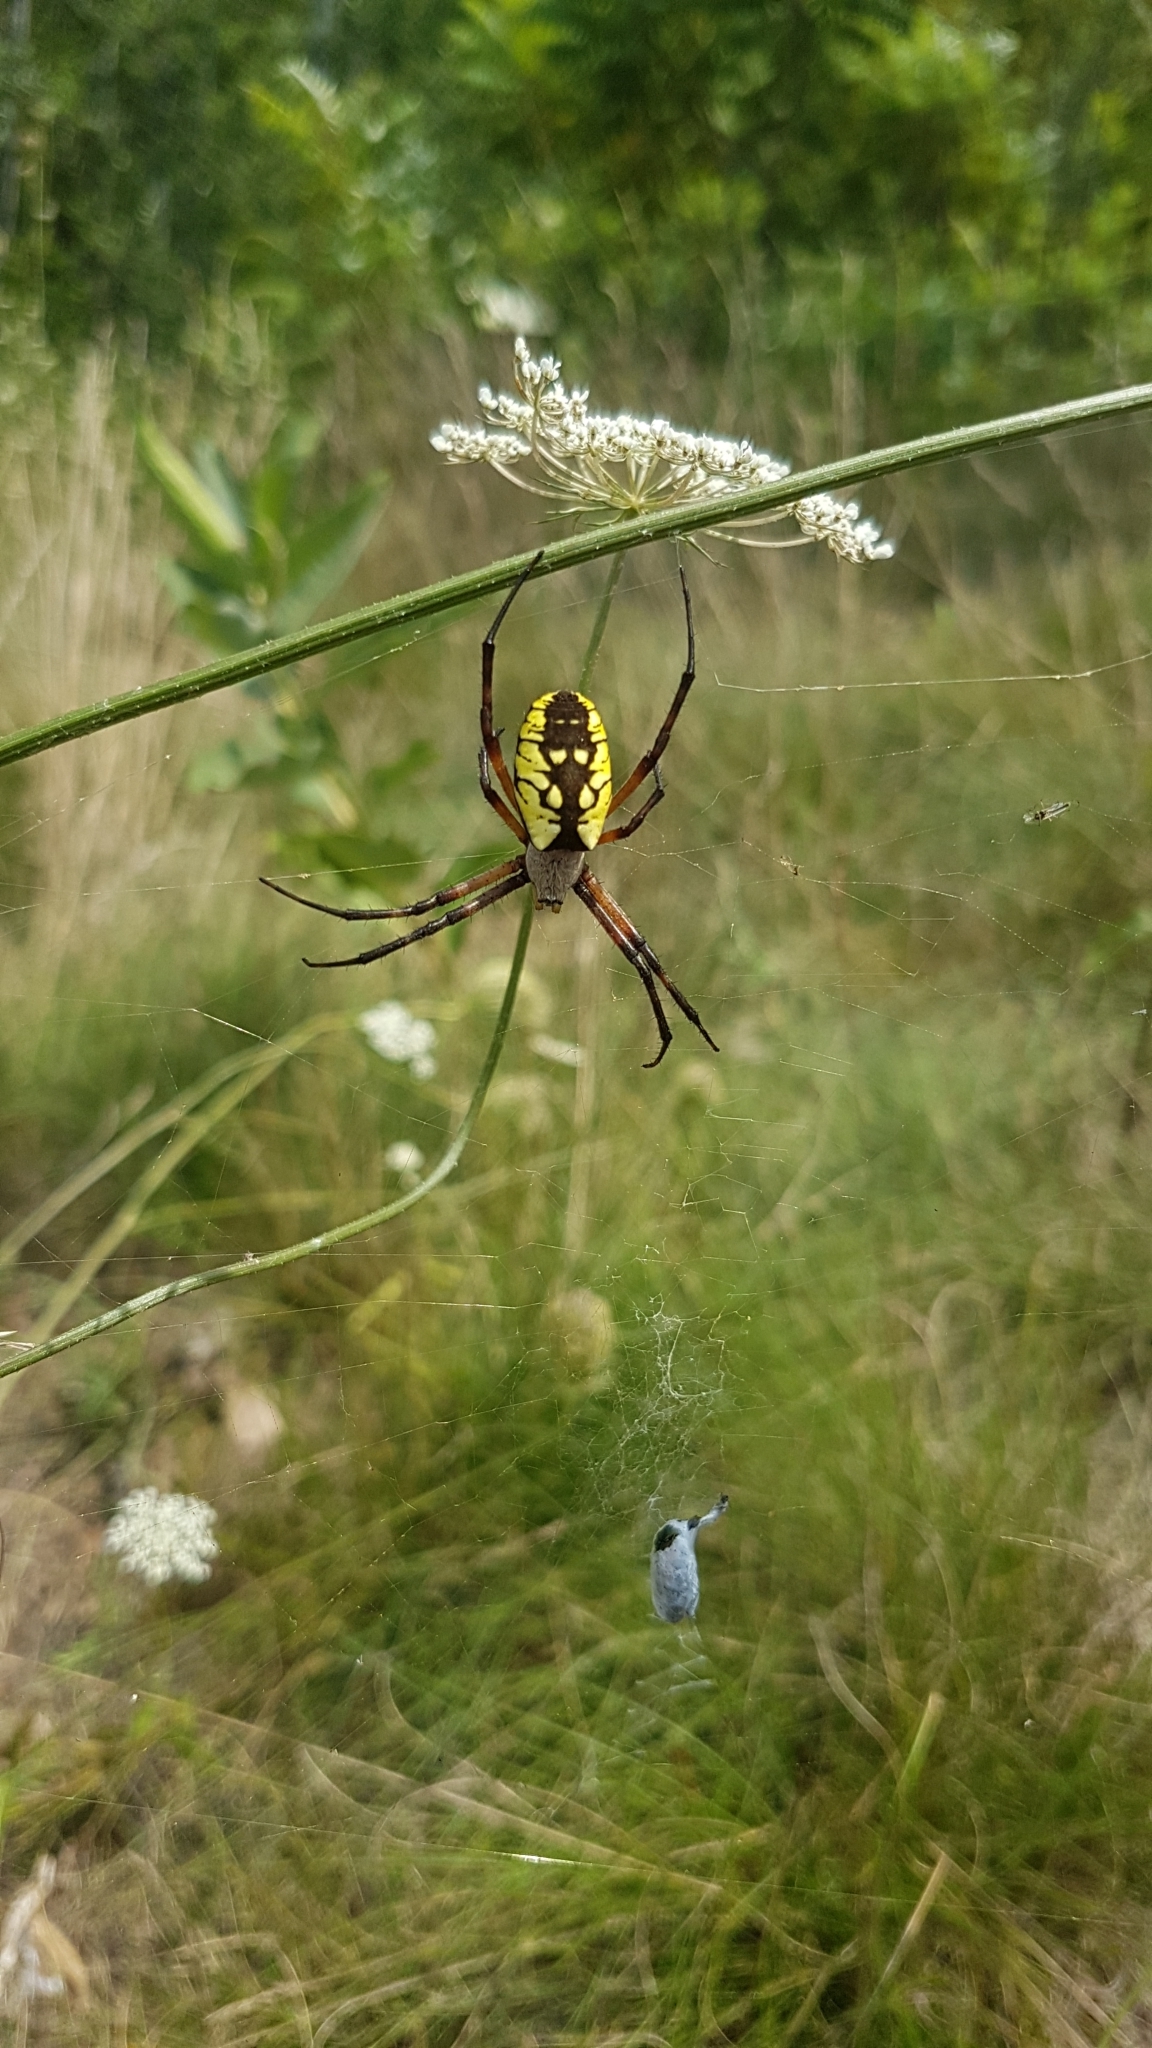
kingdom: Animalia
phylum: Arthropoda
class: Arachnida
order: Araneae
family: Araneidae
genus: Argiope
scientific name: Argiope aurantia
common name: Orb weavers
